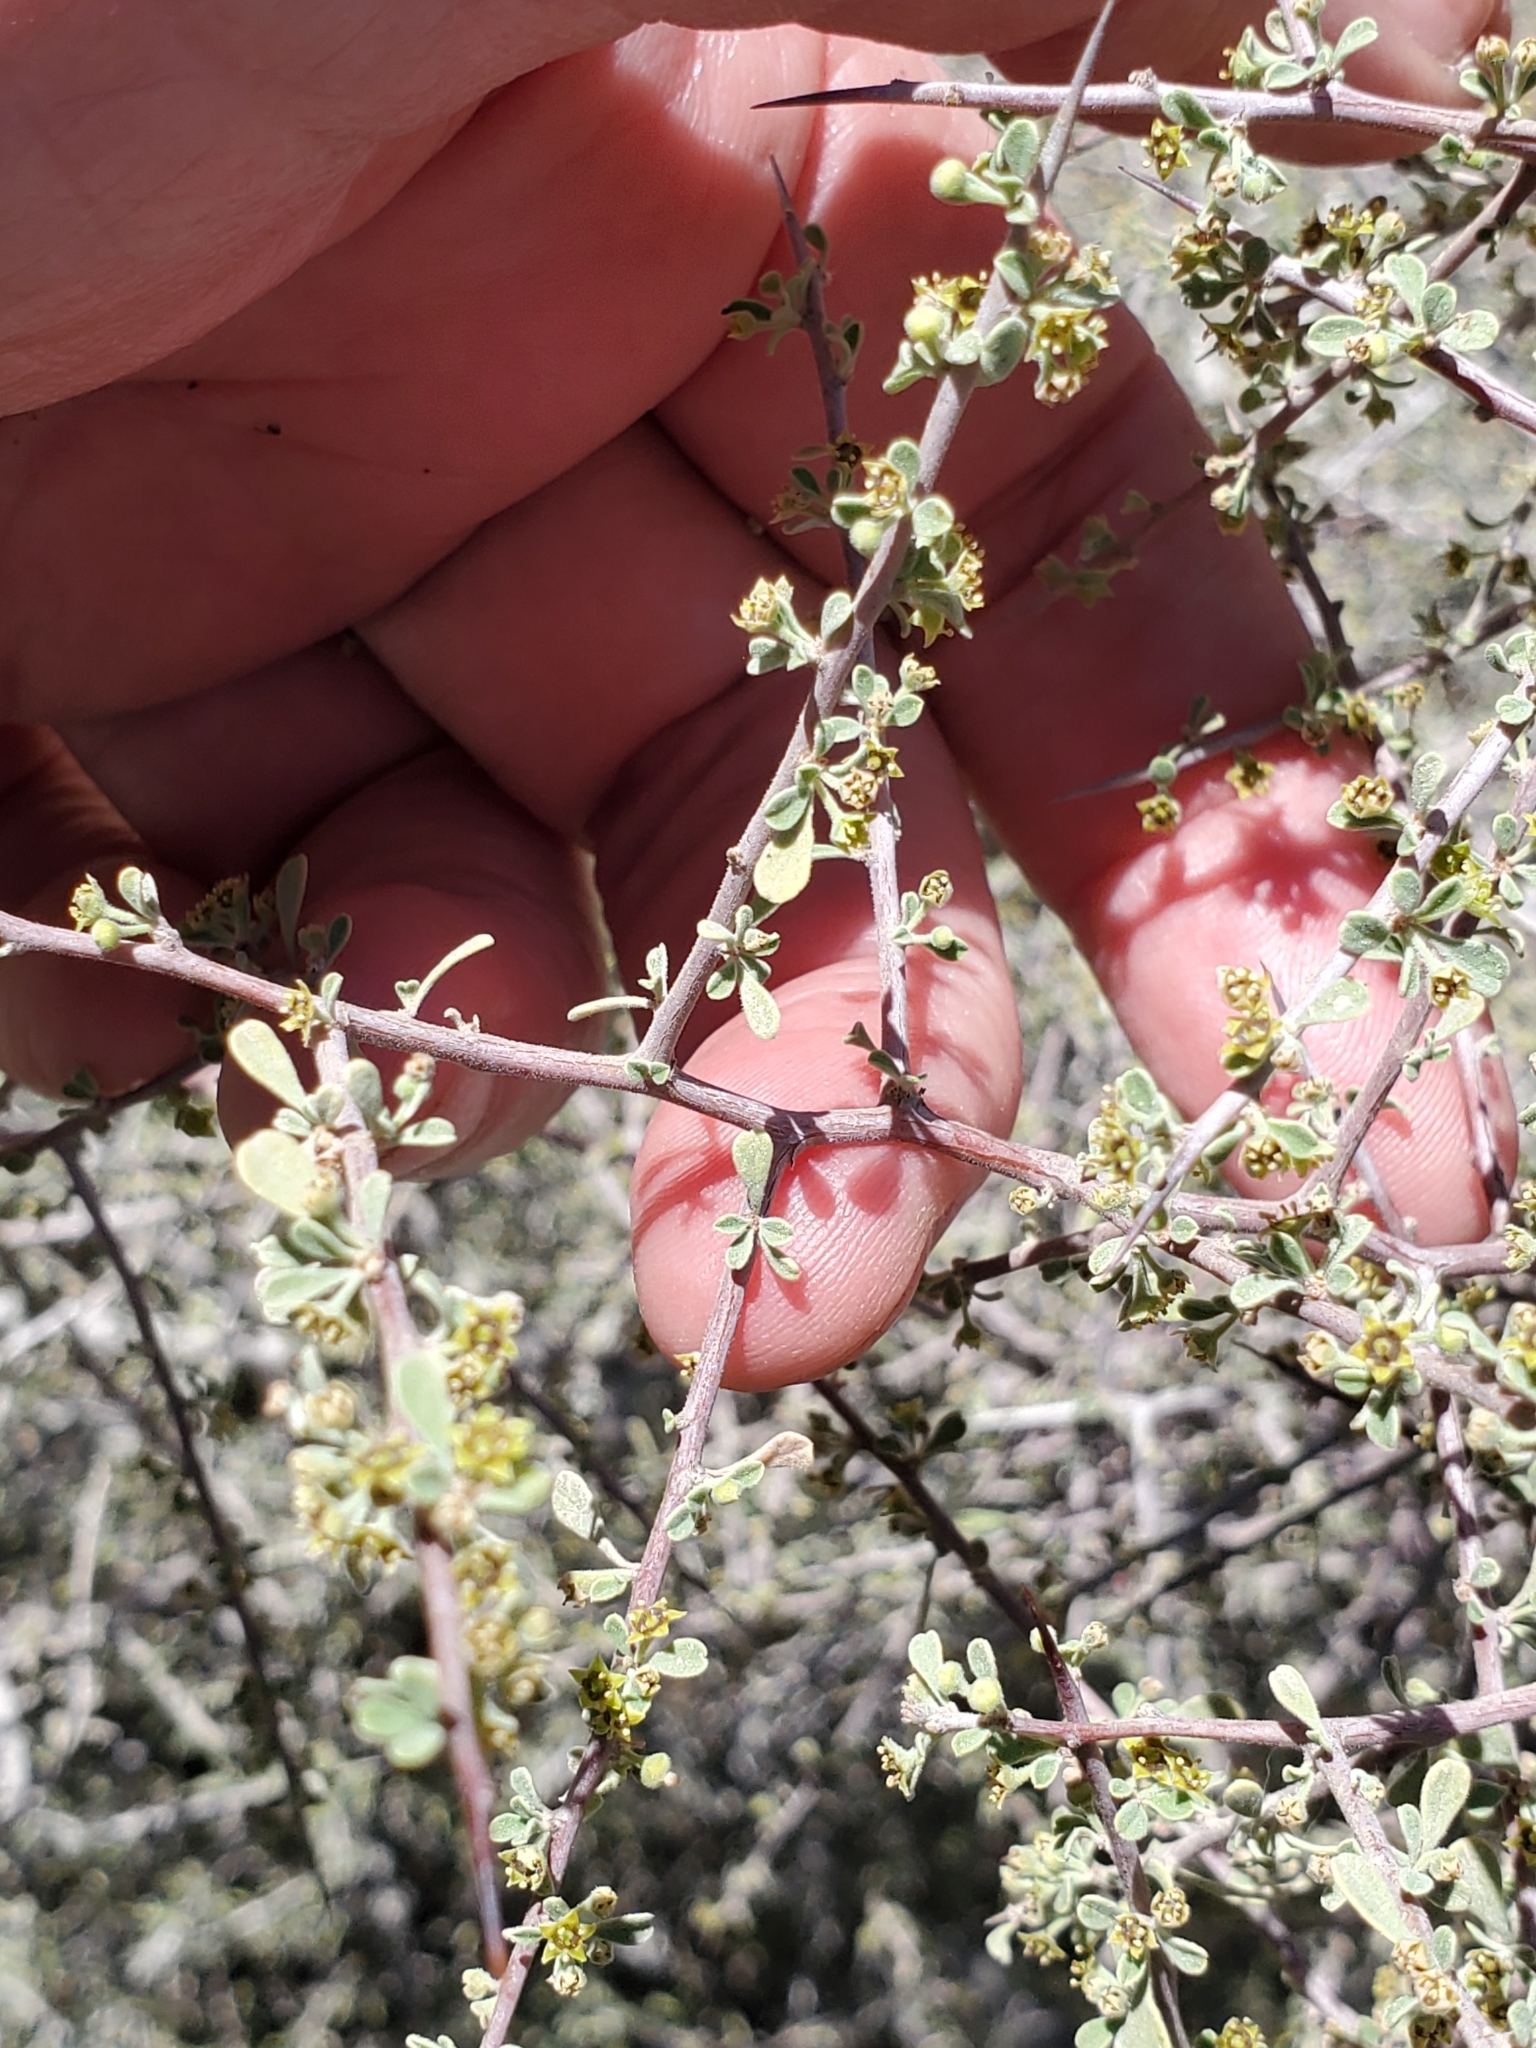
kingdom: Plantae
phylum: Tracheophyta
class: Magnoliopsida
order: Rosales
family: Rhamnaceae
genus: Condalia
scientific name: Condalia globosa
